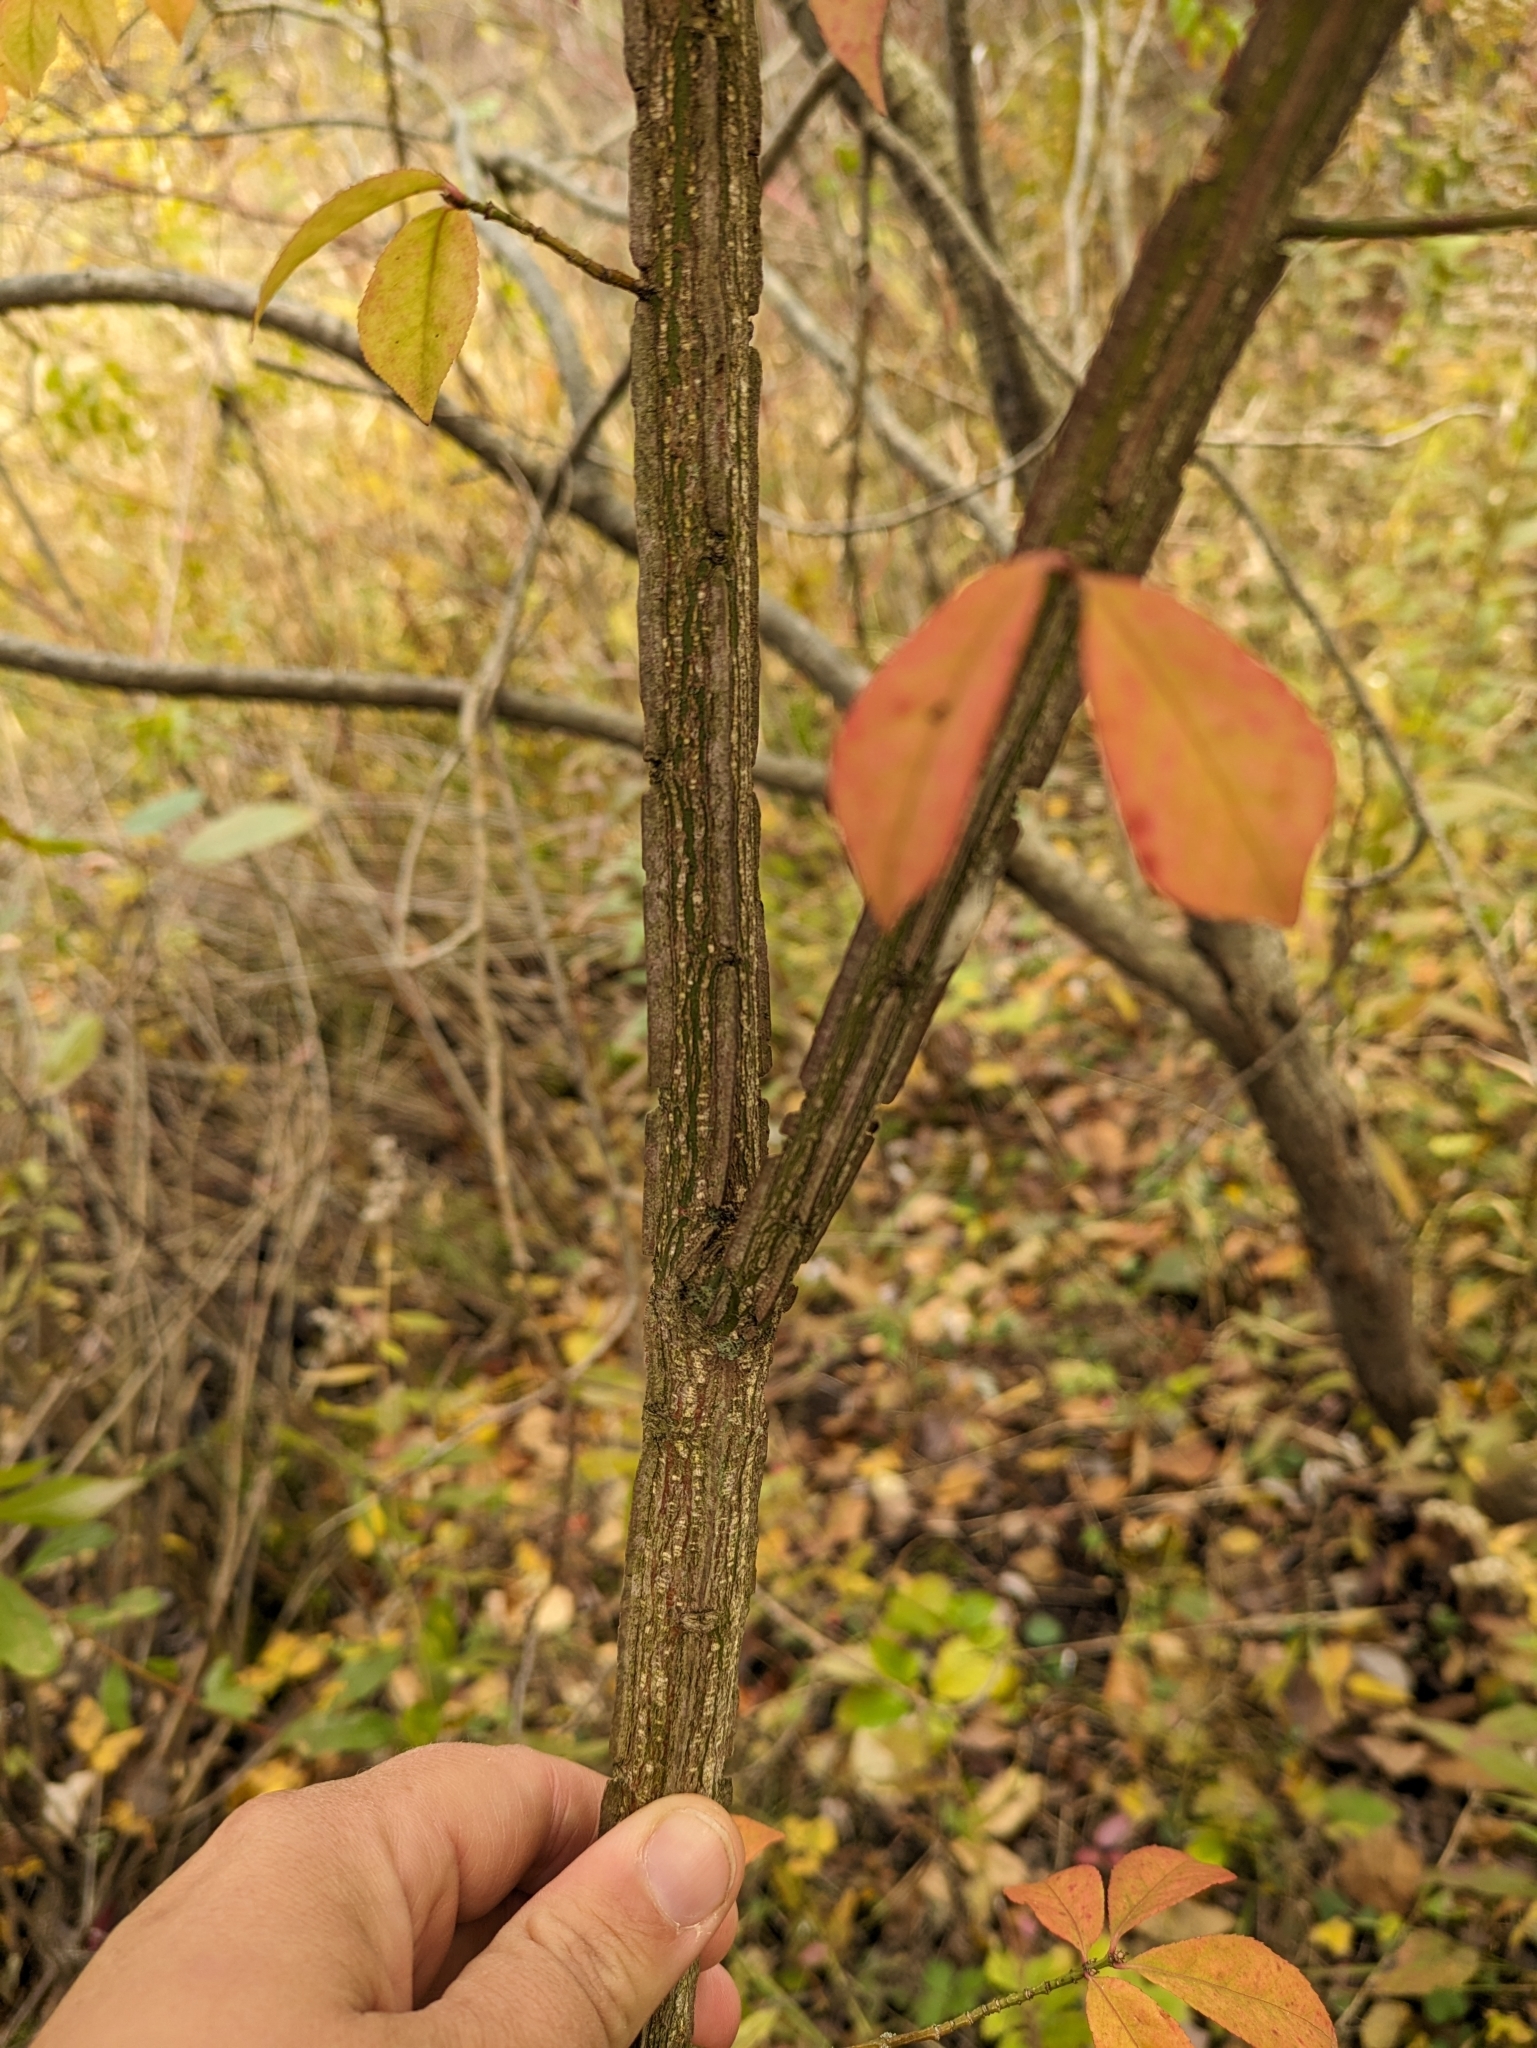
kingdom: Plantae
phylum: Tracheophyta
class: Magnoliopsida
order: Celastrales
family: Celastraceae
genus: Euonymus
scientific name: Euonymus alatus
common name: Winged euonymus
